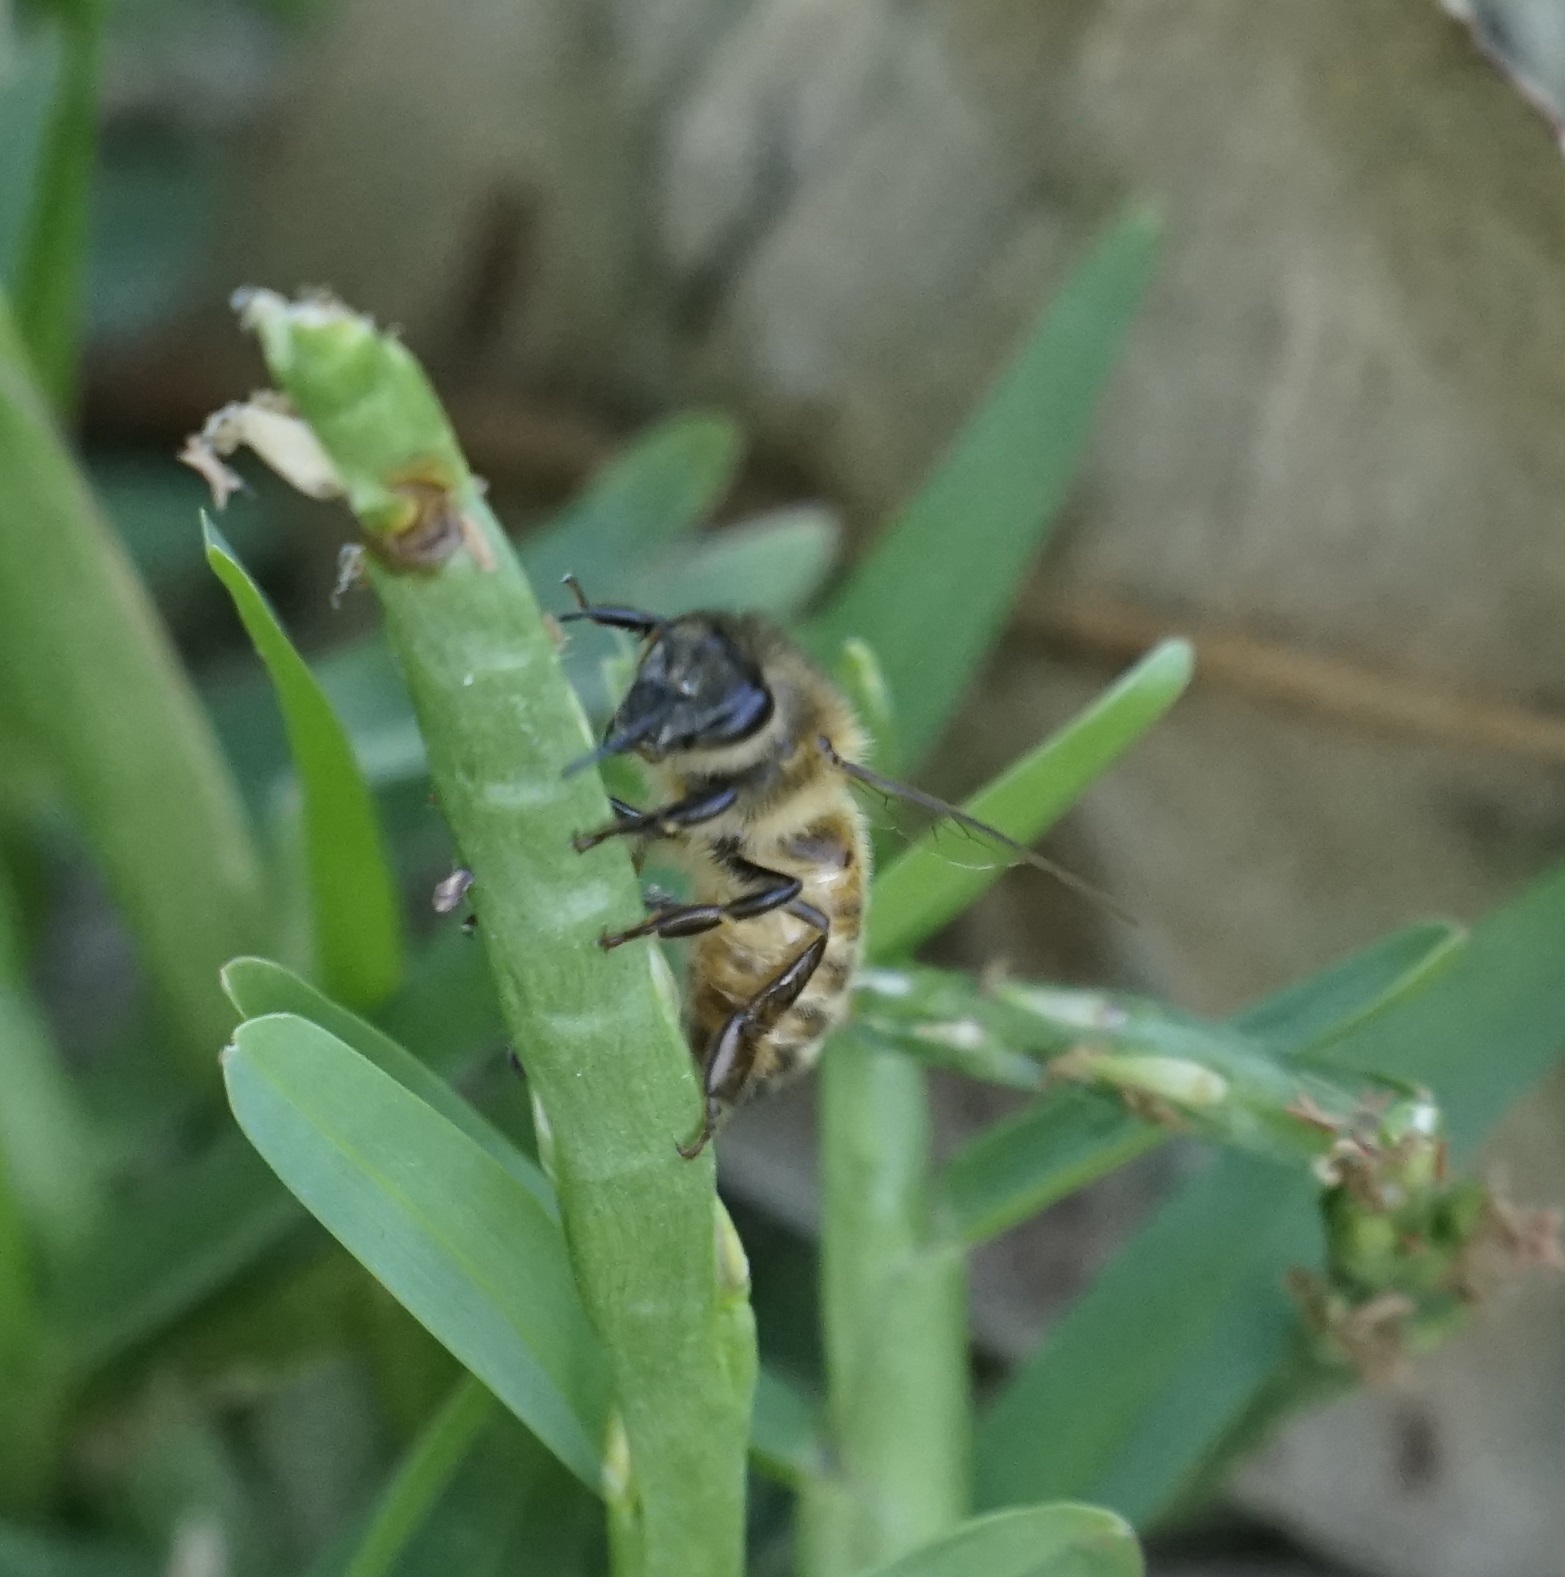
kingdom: Animalia
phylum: Arthropoda
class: Insecta
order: Hymenoptera
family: Apidae
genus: Apis
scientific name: Apis mellifera
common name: Honey bee
